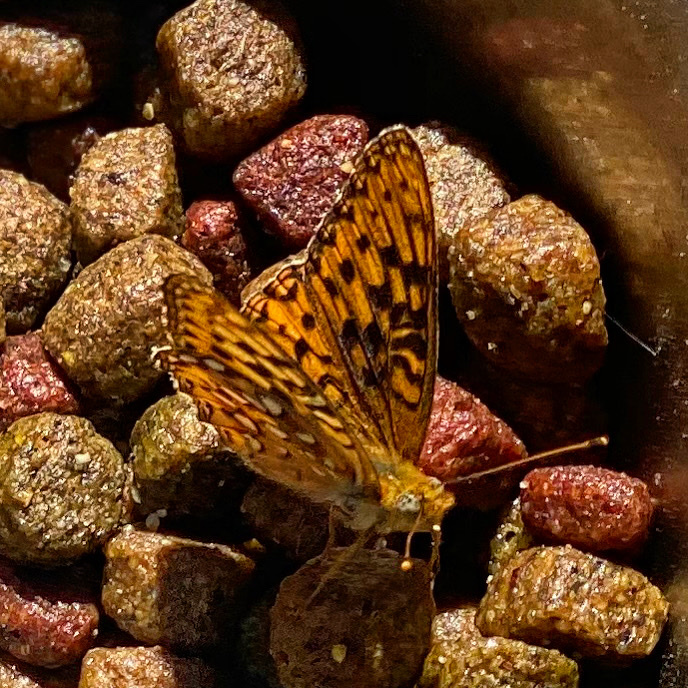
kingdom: Animalia
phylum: Arthropoda
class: Insecta
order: Lepidoptera
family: Nymphalidae
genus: Speyeria
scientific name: Speyeria egleis
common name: Great basin fritillary
